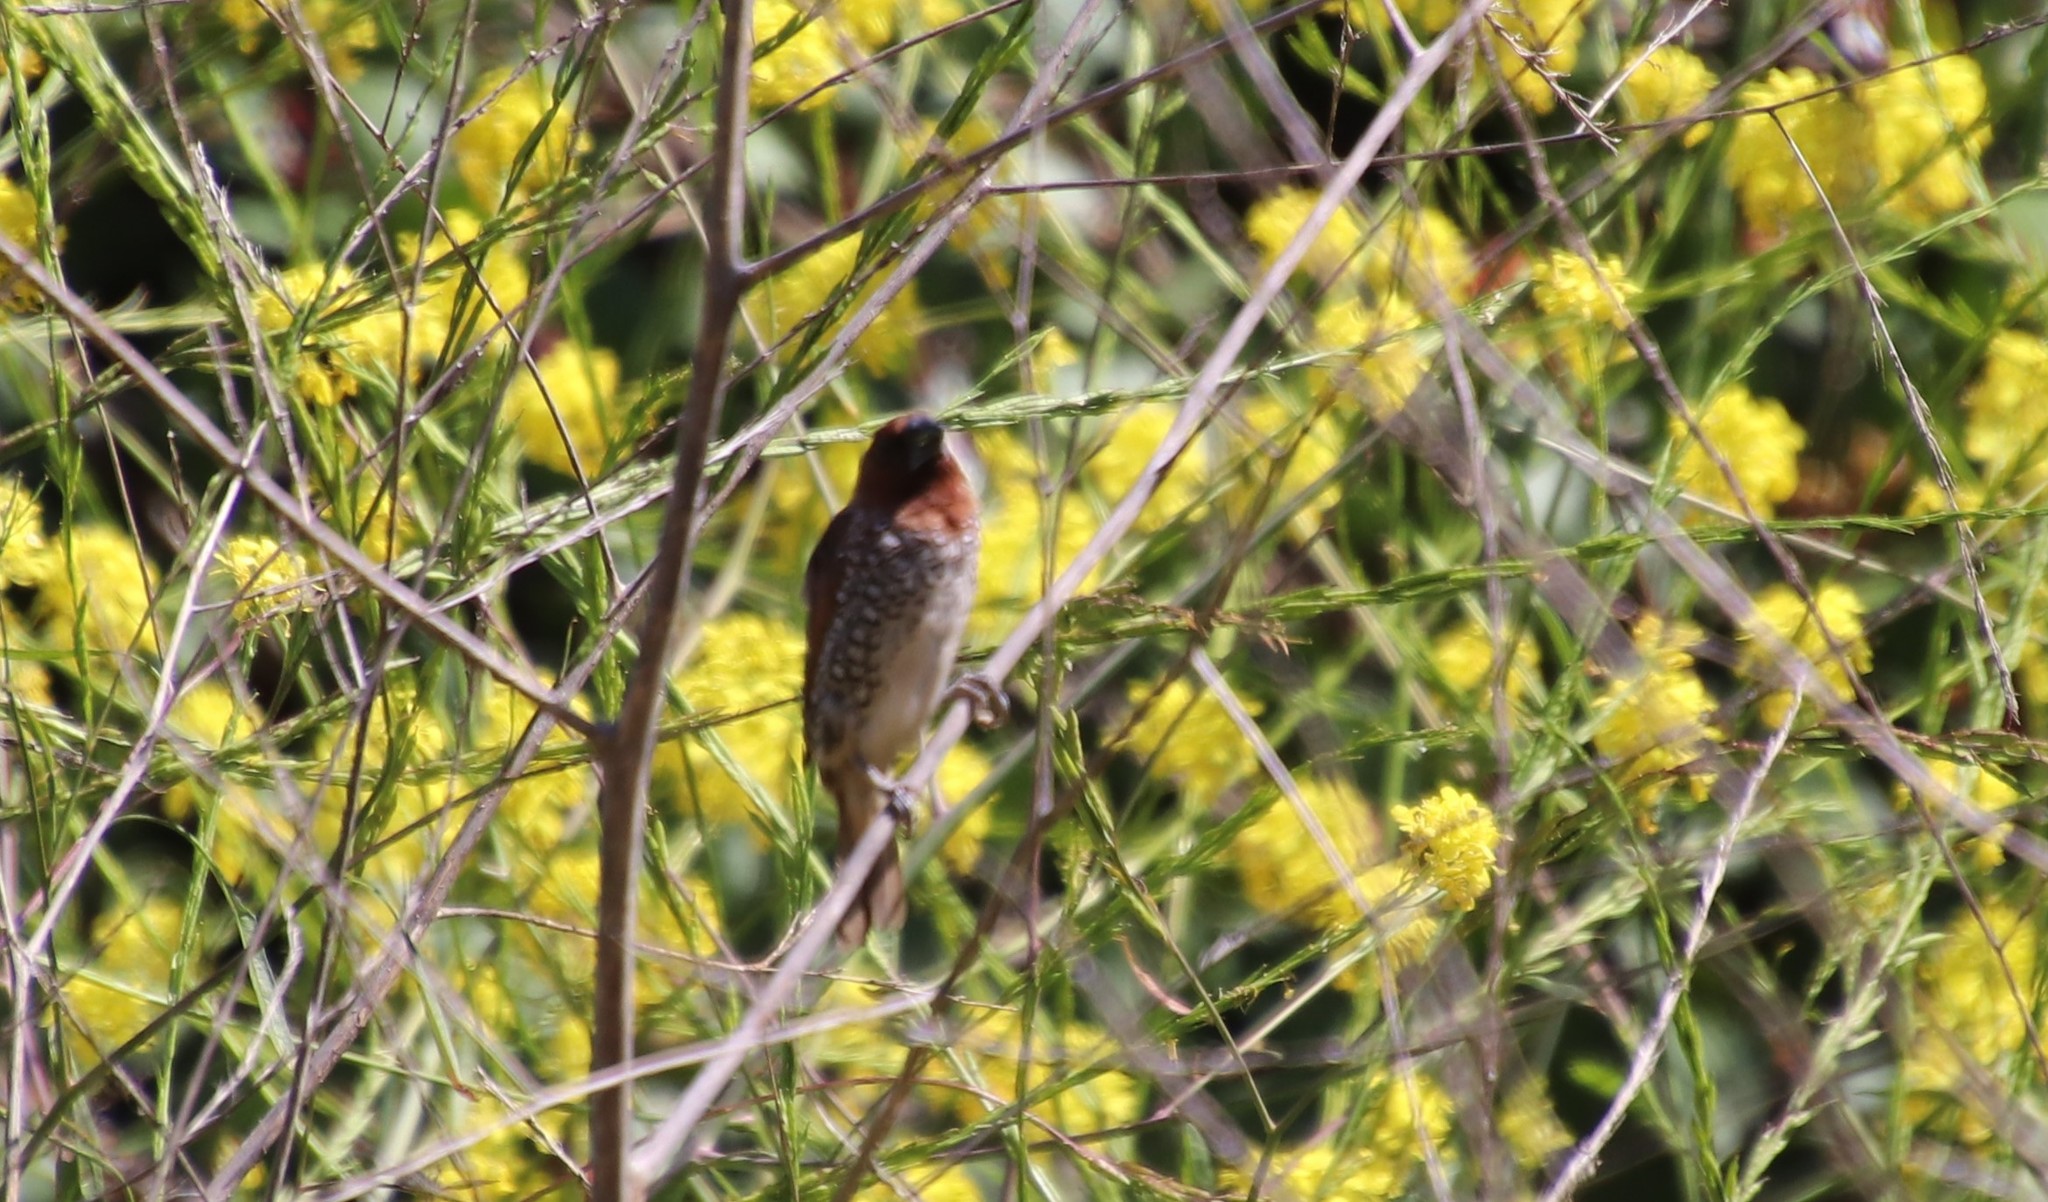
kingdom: Animalia
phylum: Chordata
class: Aves
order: Passeriformes
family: Estrildidae
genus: Lonchura
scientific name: Lonchura punctulata
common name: Scaly-breasted munia
